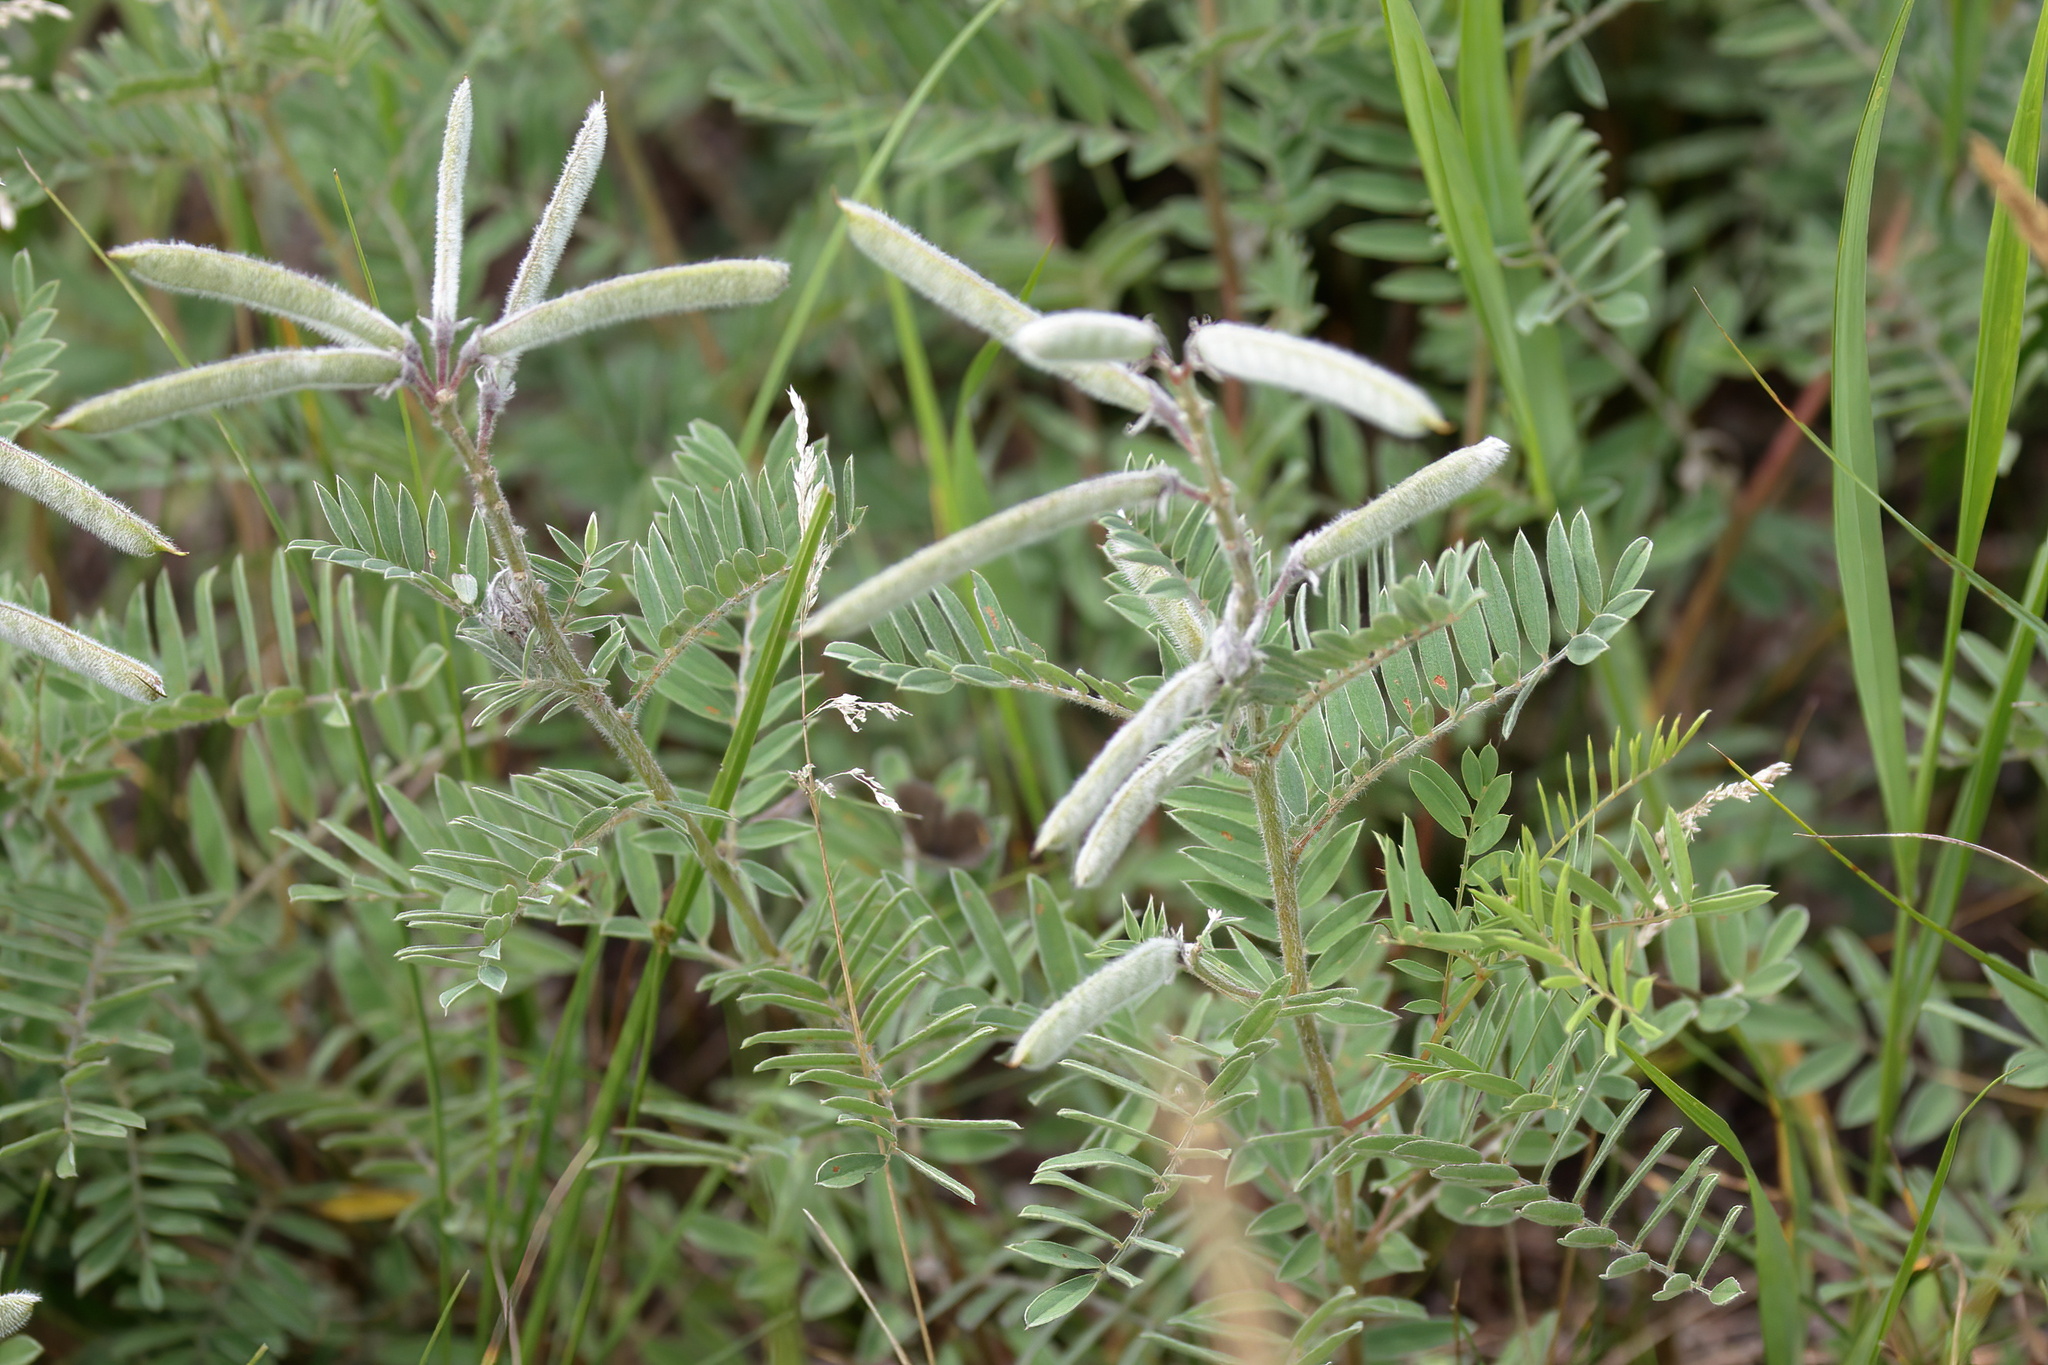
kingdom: Plantae
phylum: Tracheophyta
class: Magnoliopsida
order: Fabales
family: Fabaceae
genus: Tephrosia
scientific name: Tephrosia virginiana
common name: Rabbit-pea
